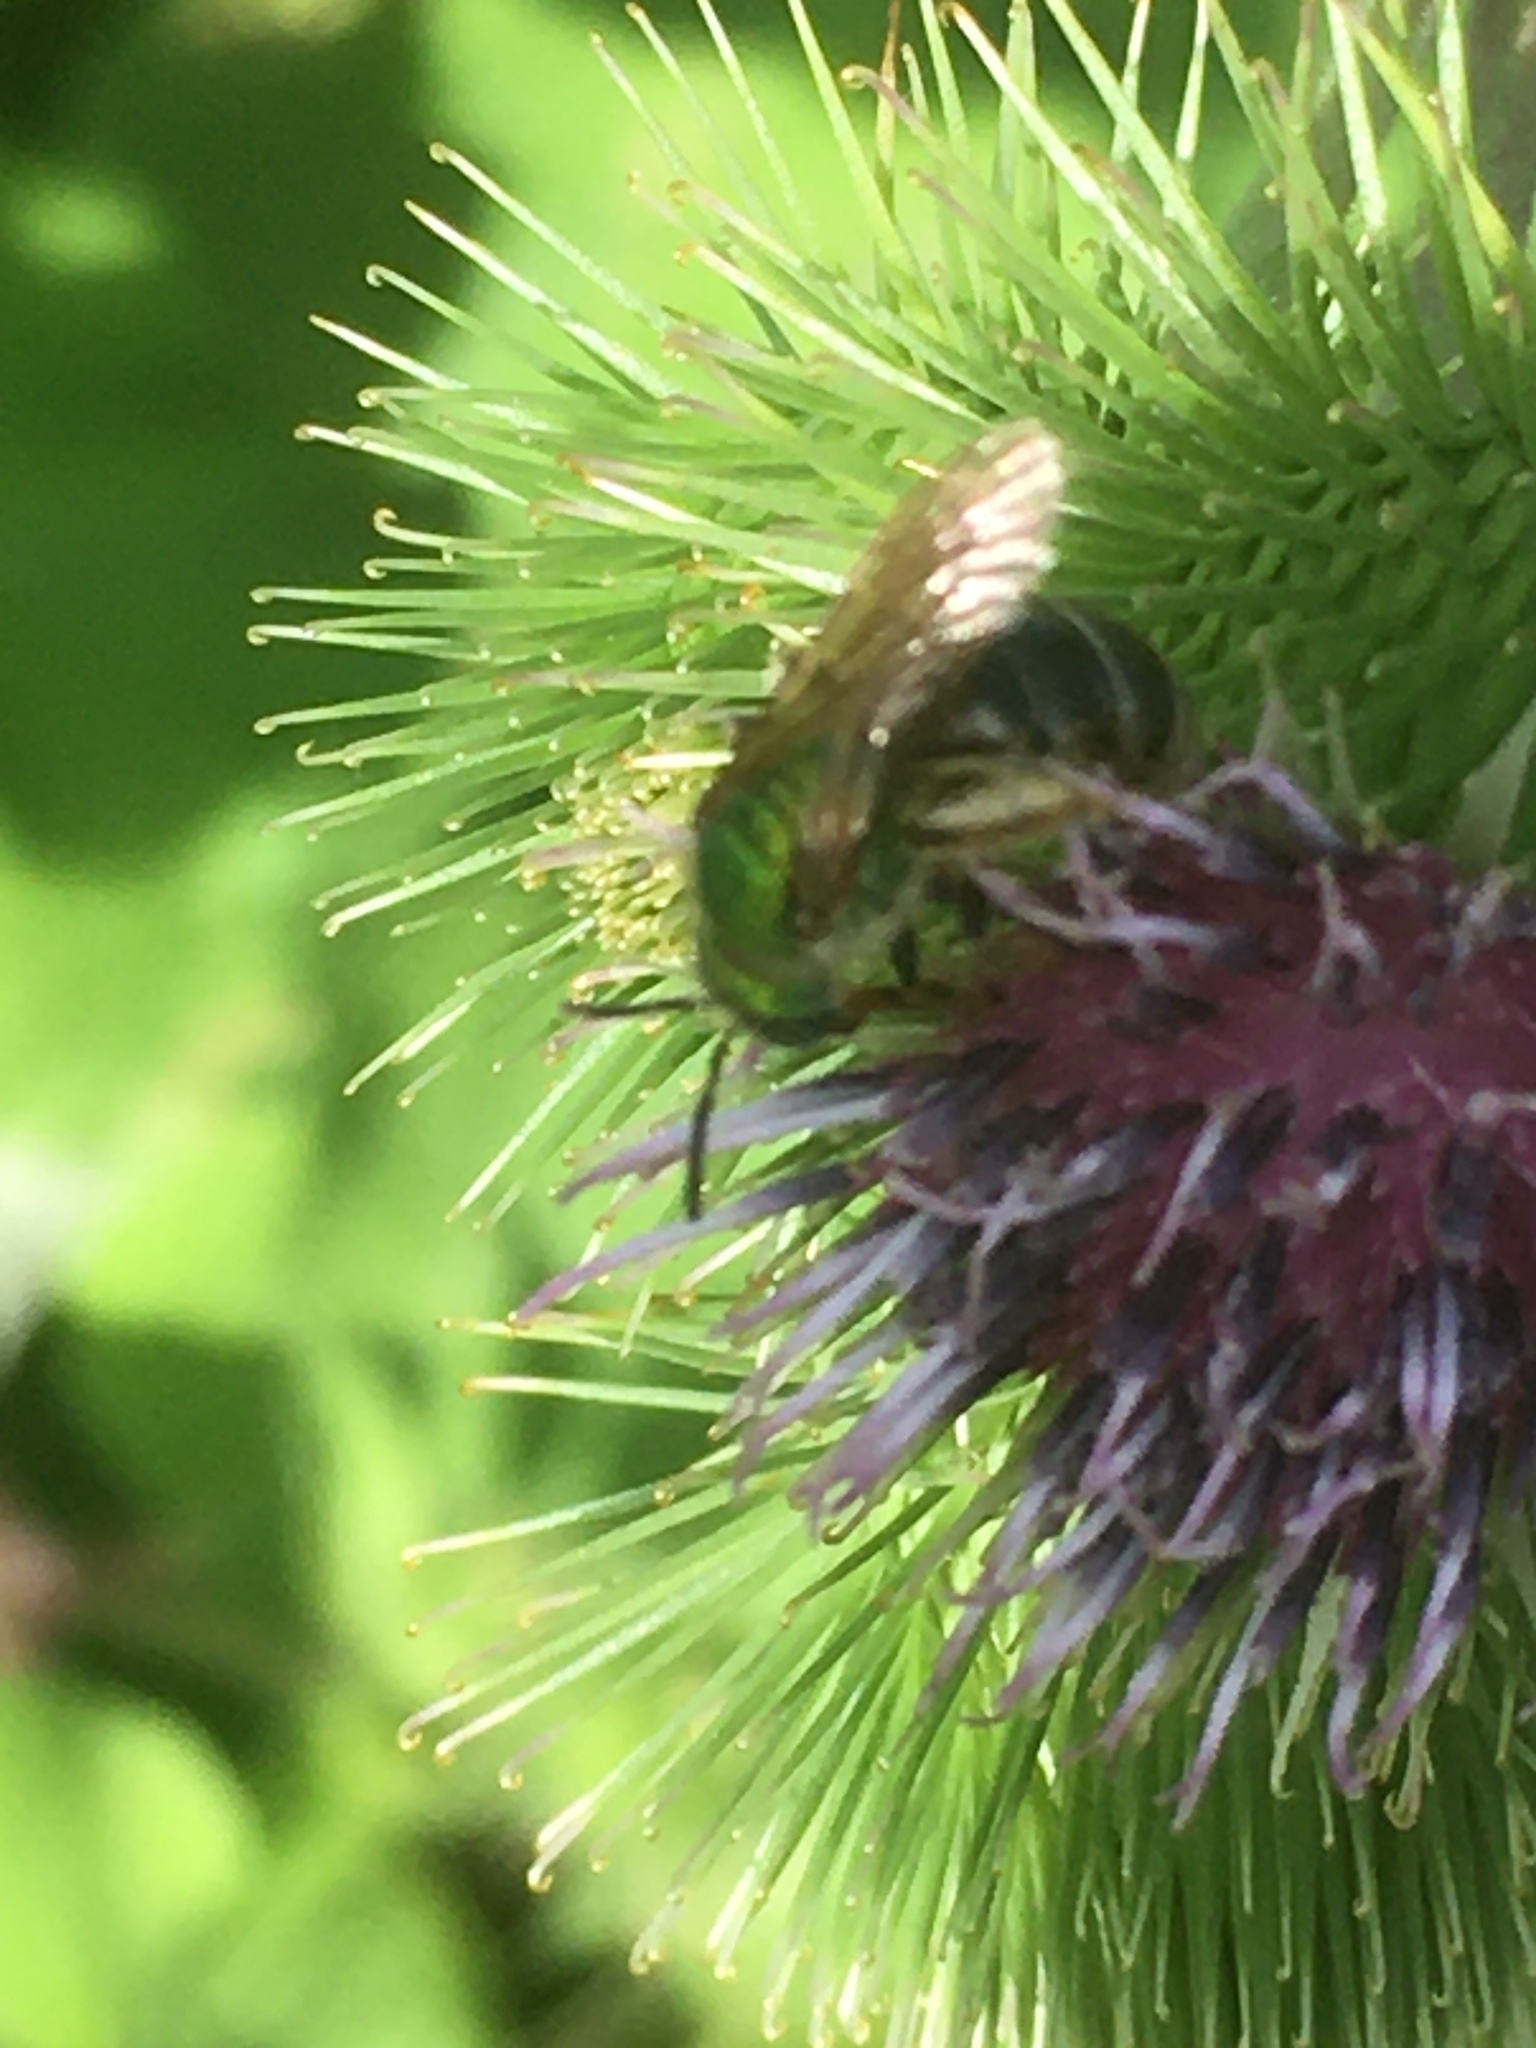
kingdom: Animalia
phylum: Arthropoda
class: Insecta
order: Hymenoptera
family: Halictidae
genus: Agapostemon
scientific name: Agapostemon virescens
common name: Bicolored striped sweat bee
